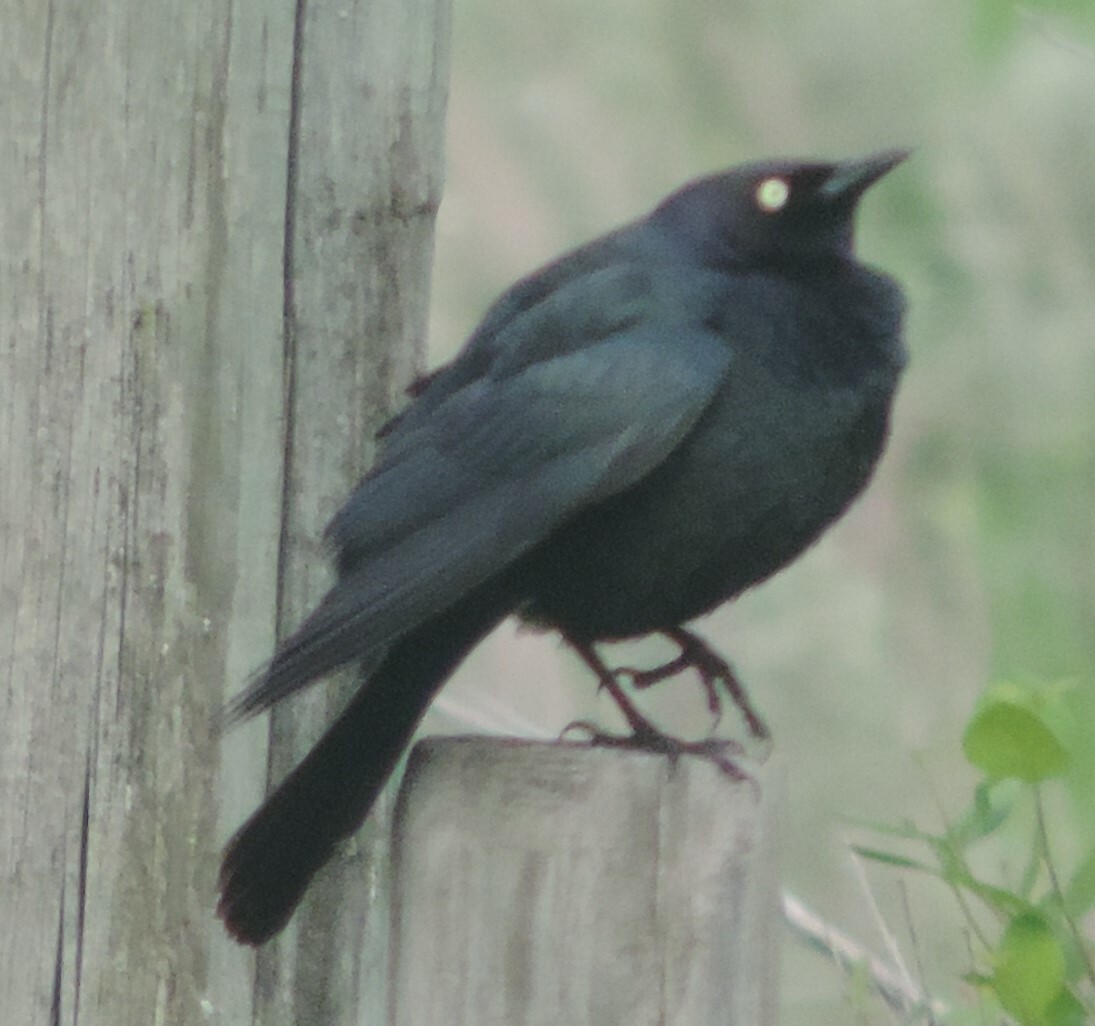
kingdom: Animalia
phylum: Chordata
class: Aves
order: Passeriformes
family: Icteridae
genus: Euphagus
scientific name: Euphagus cyanocephalus
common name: Brewer's blackbird
